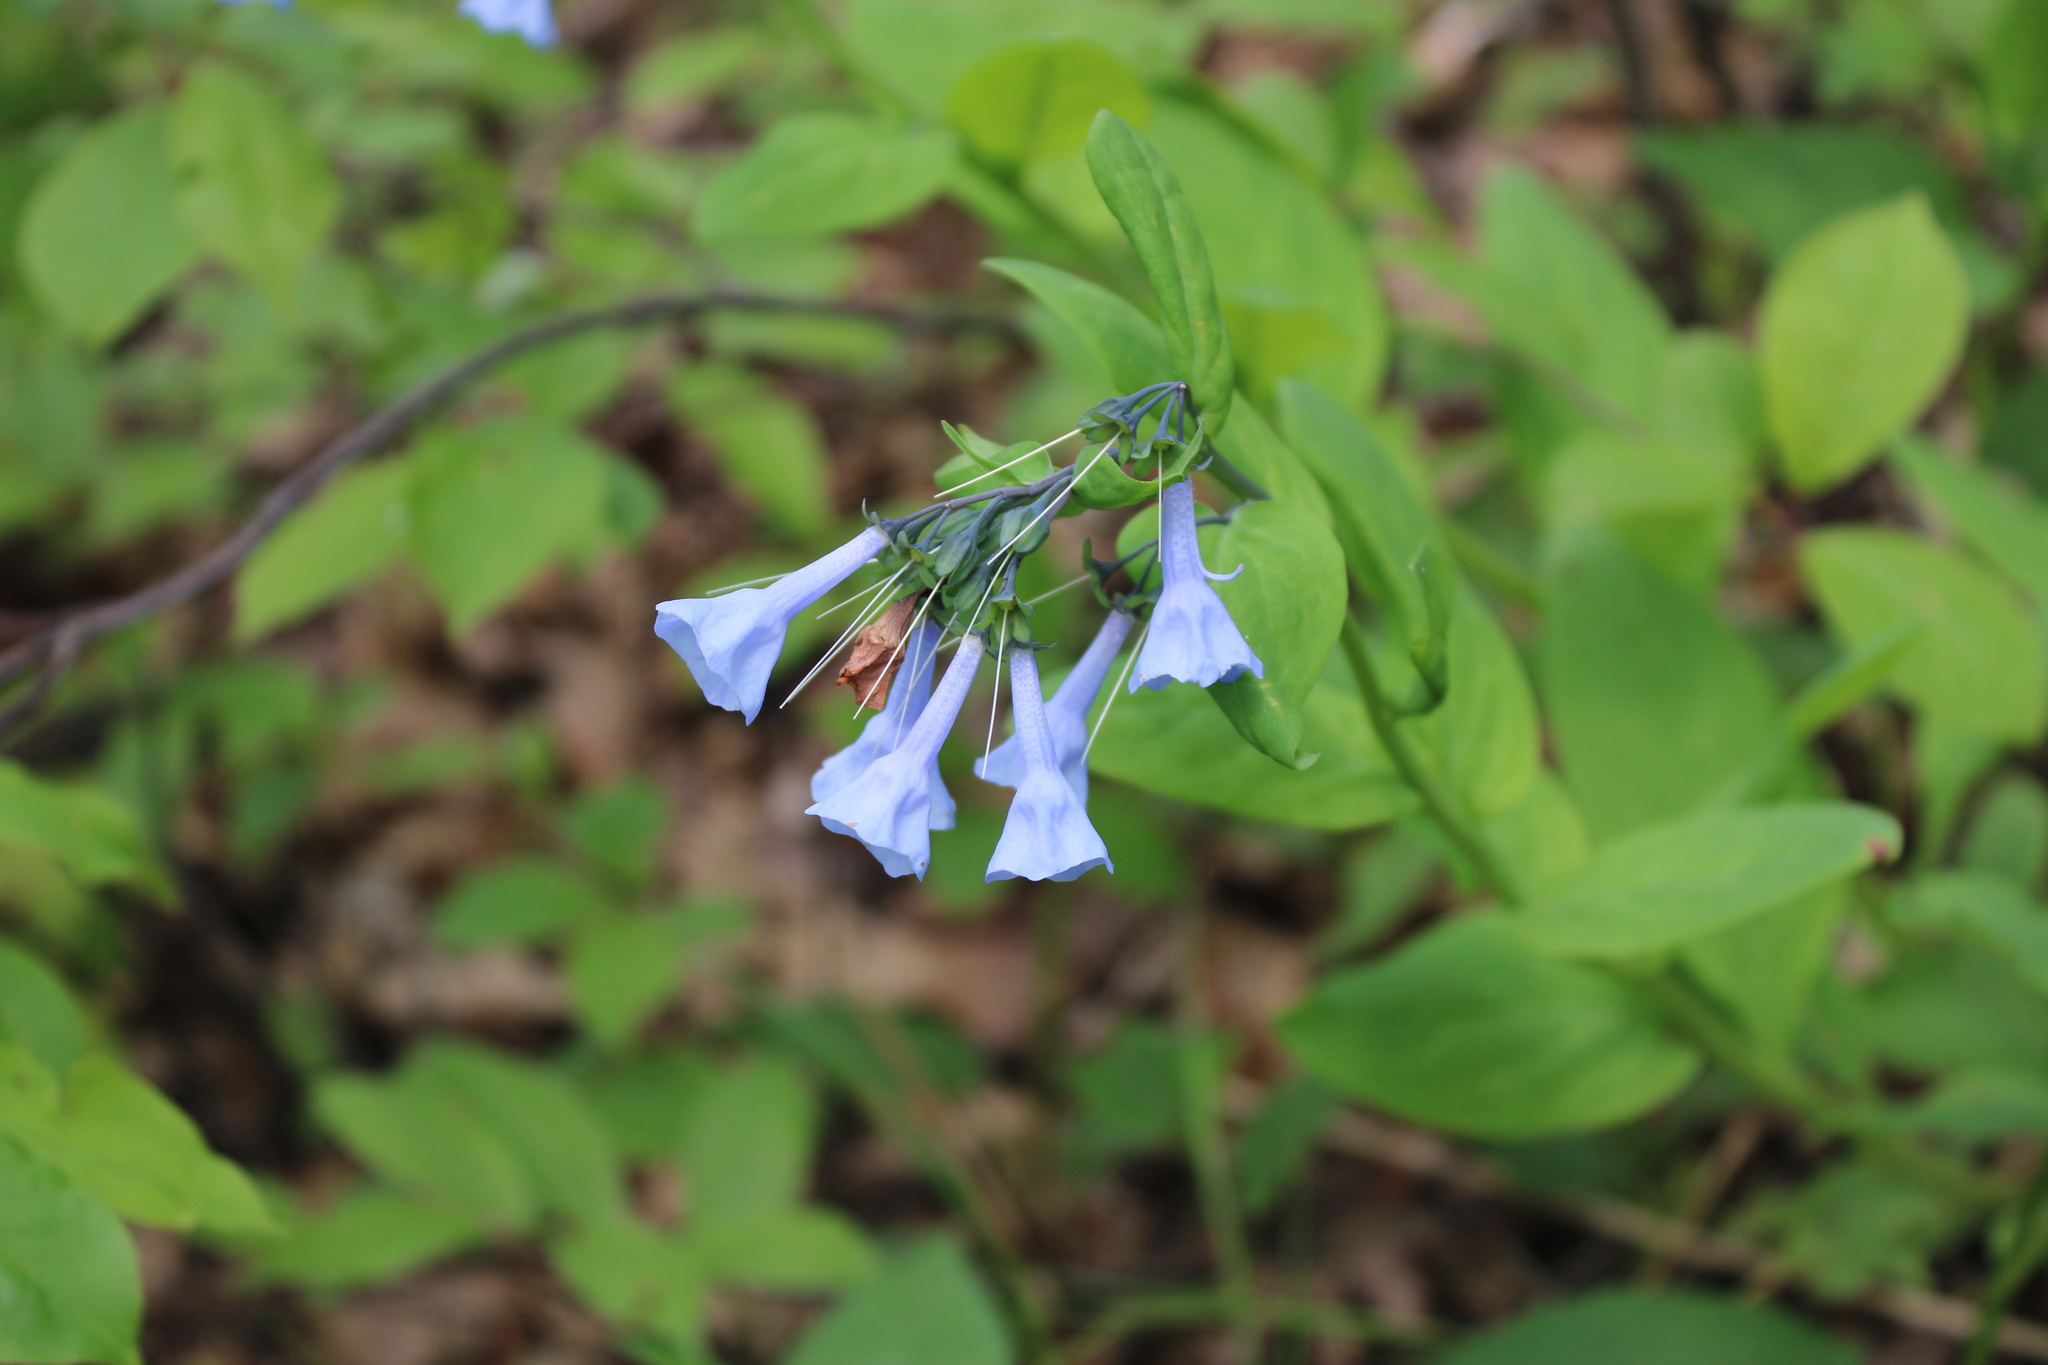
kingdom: Plantae
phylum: Tracheophyta
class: Magnoliopsida
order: Boraginales
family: Boraginaceae
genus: Mertensia
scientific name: Mertensia virginica
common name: Virginia bluebells
